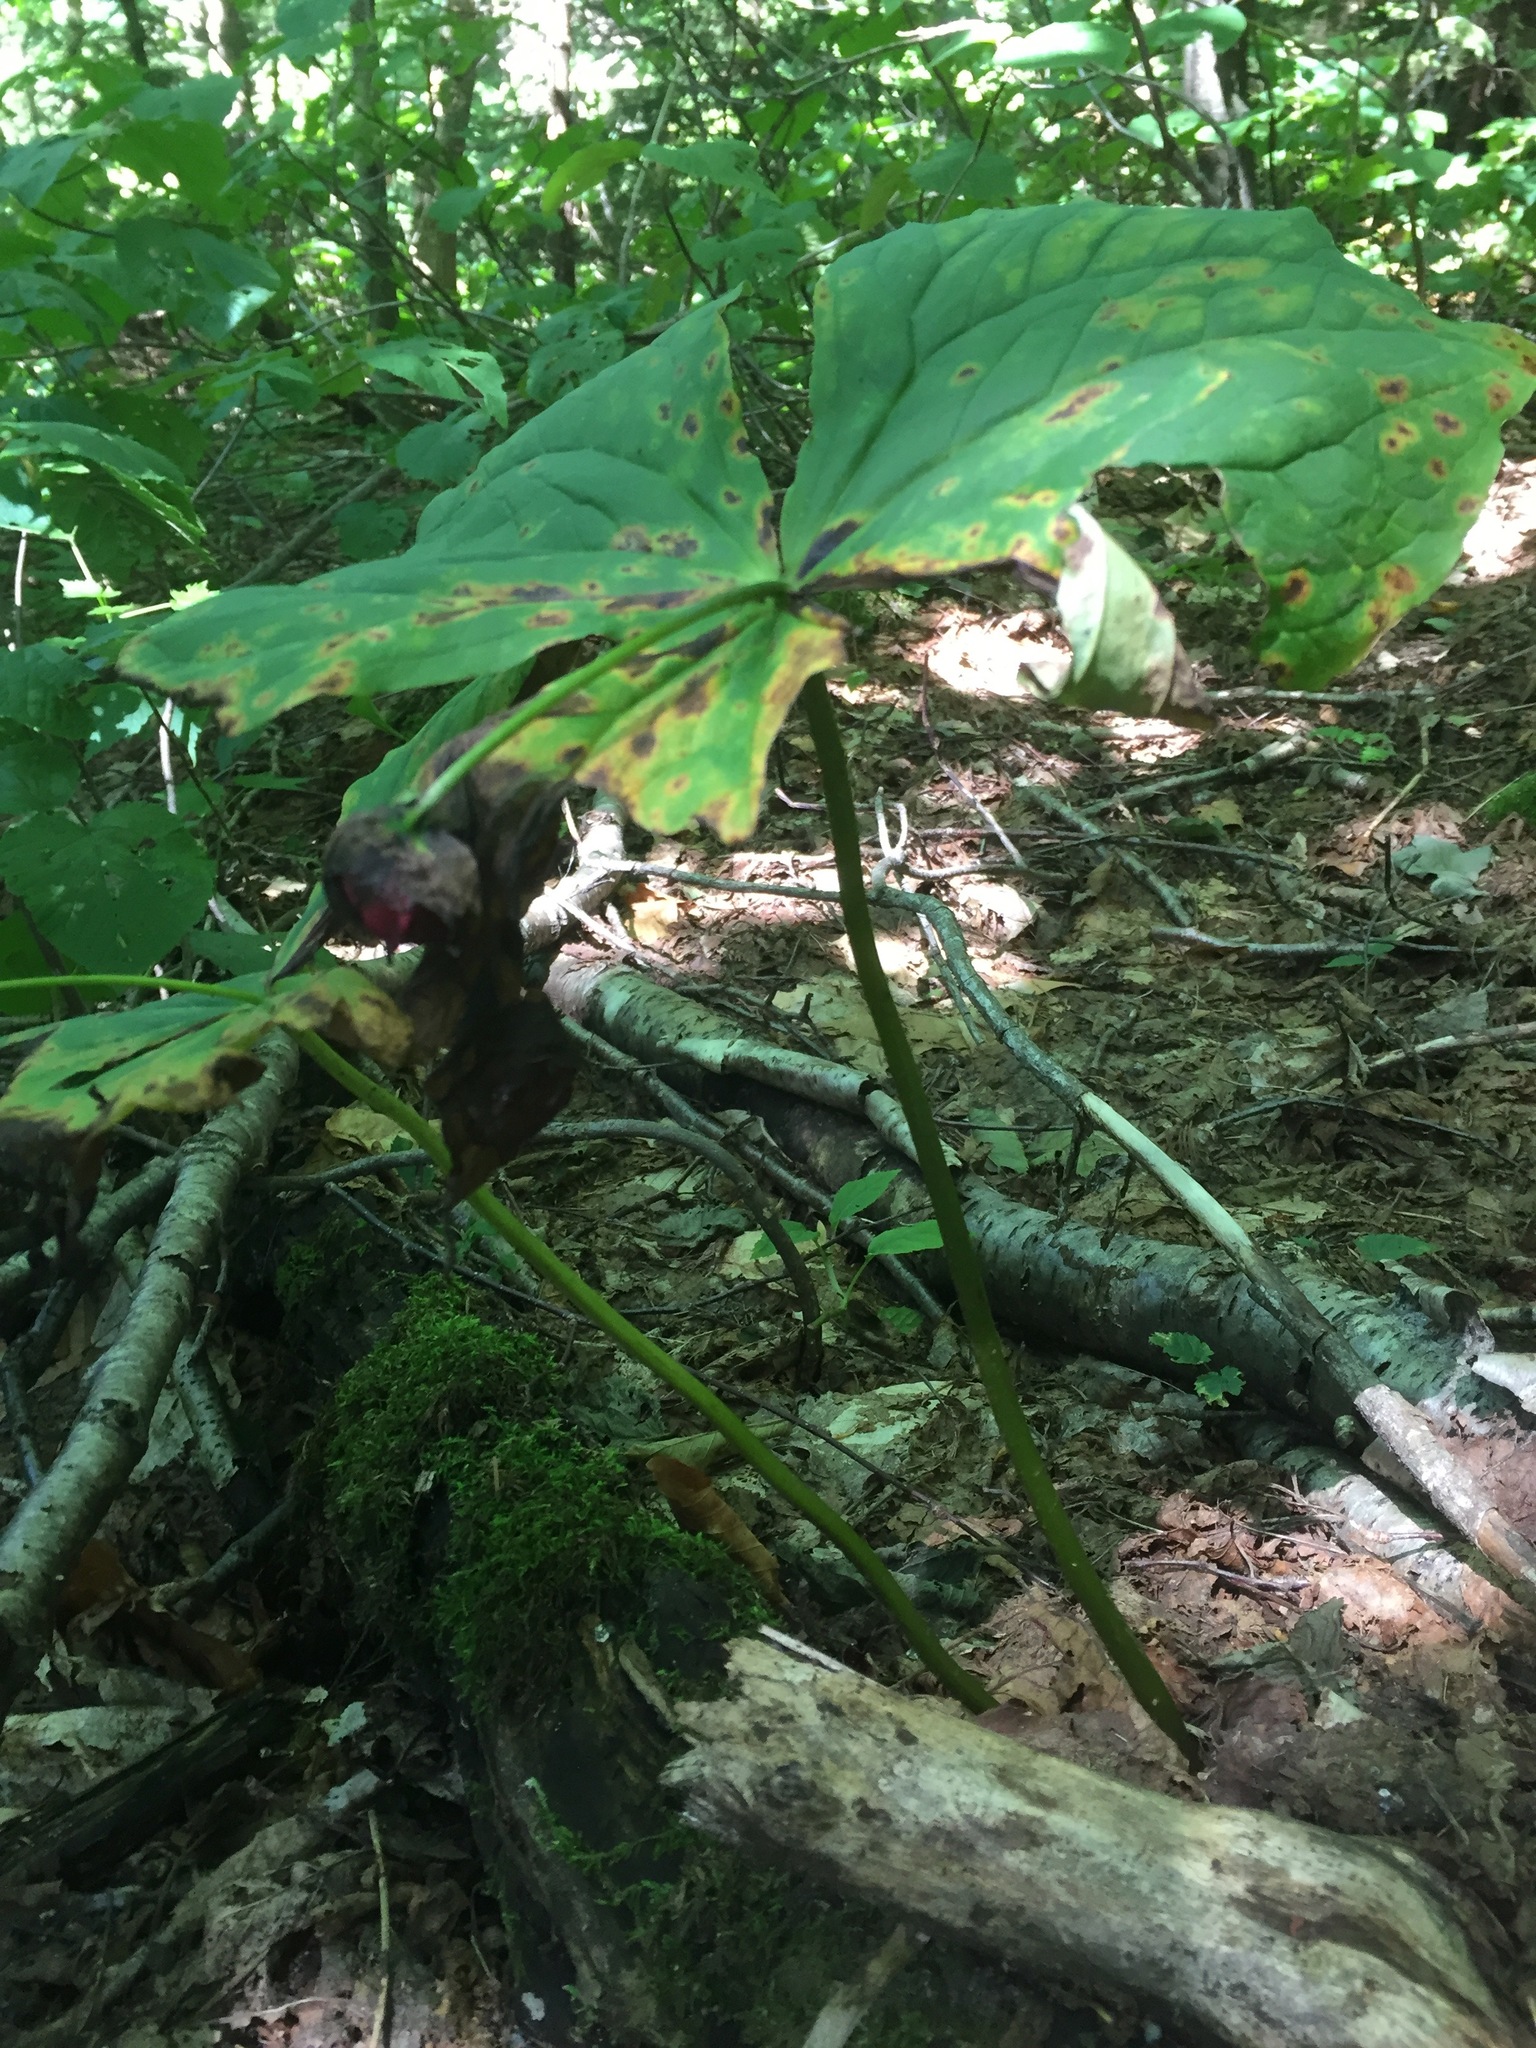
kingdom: Plantae
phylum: Tracheophyta
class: Liliopsida
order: Liliales
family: Melanthiaceae
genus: Trillium
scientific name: Trillium erectum
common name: Purple trillium
